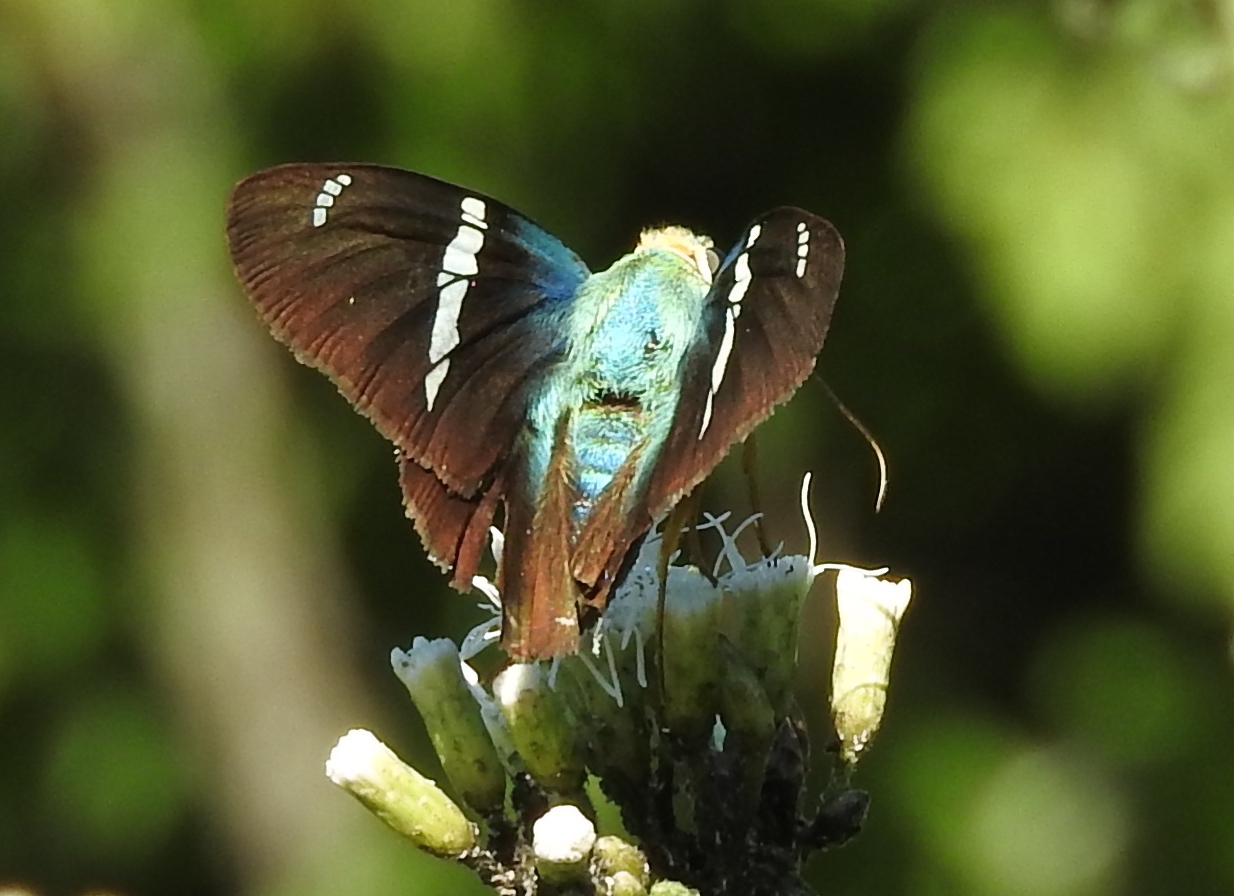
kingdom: Animalia
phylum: Arthropoda
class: Insecta
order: Lepidoptera
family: Hesperiidae
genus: Astraptes
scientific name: Astraptes fulgerator
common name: Two-barred flasher
